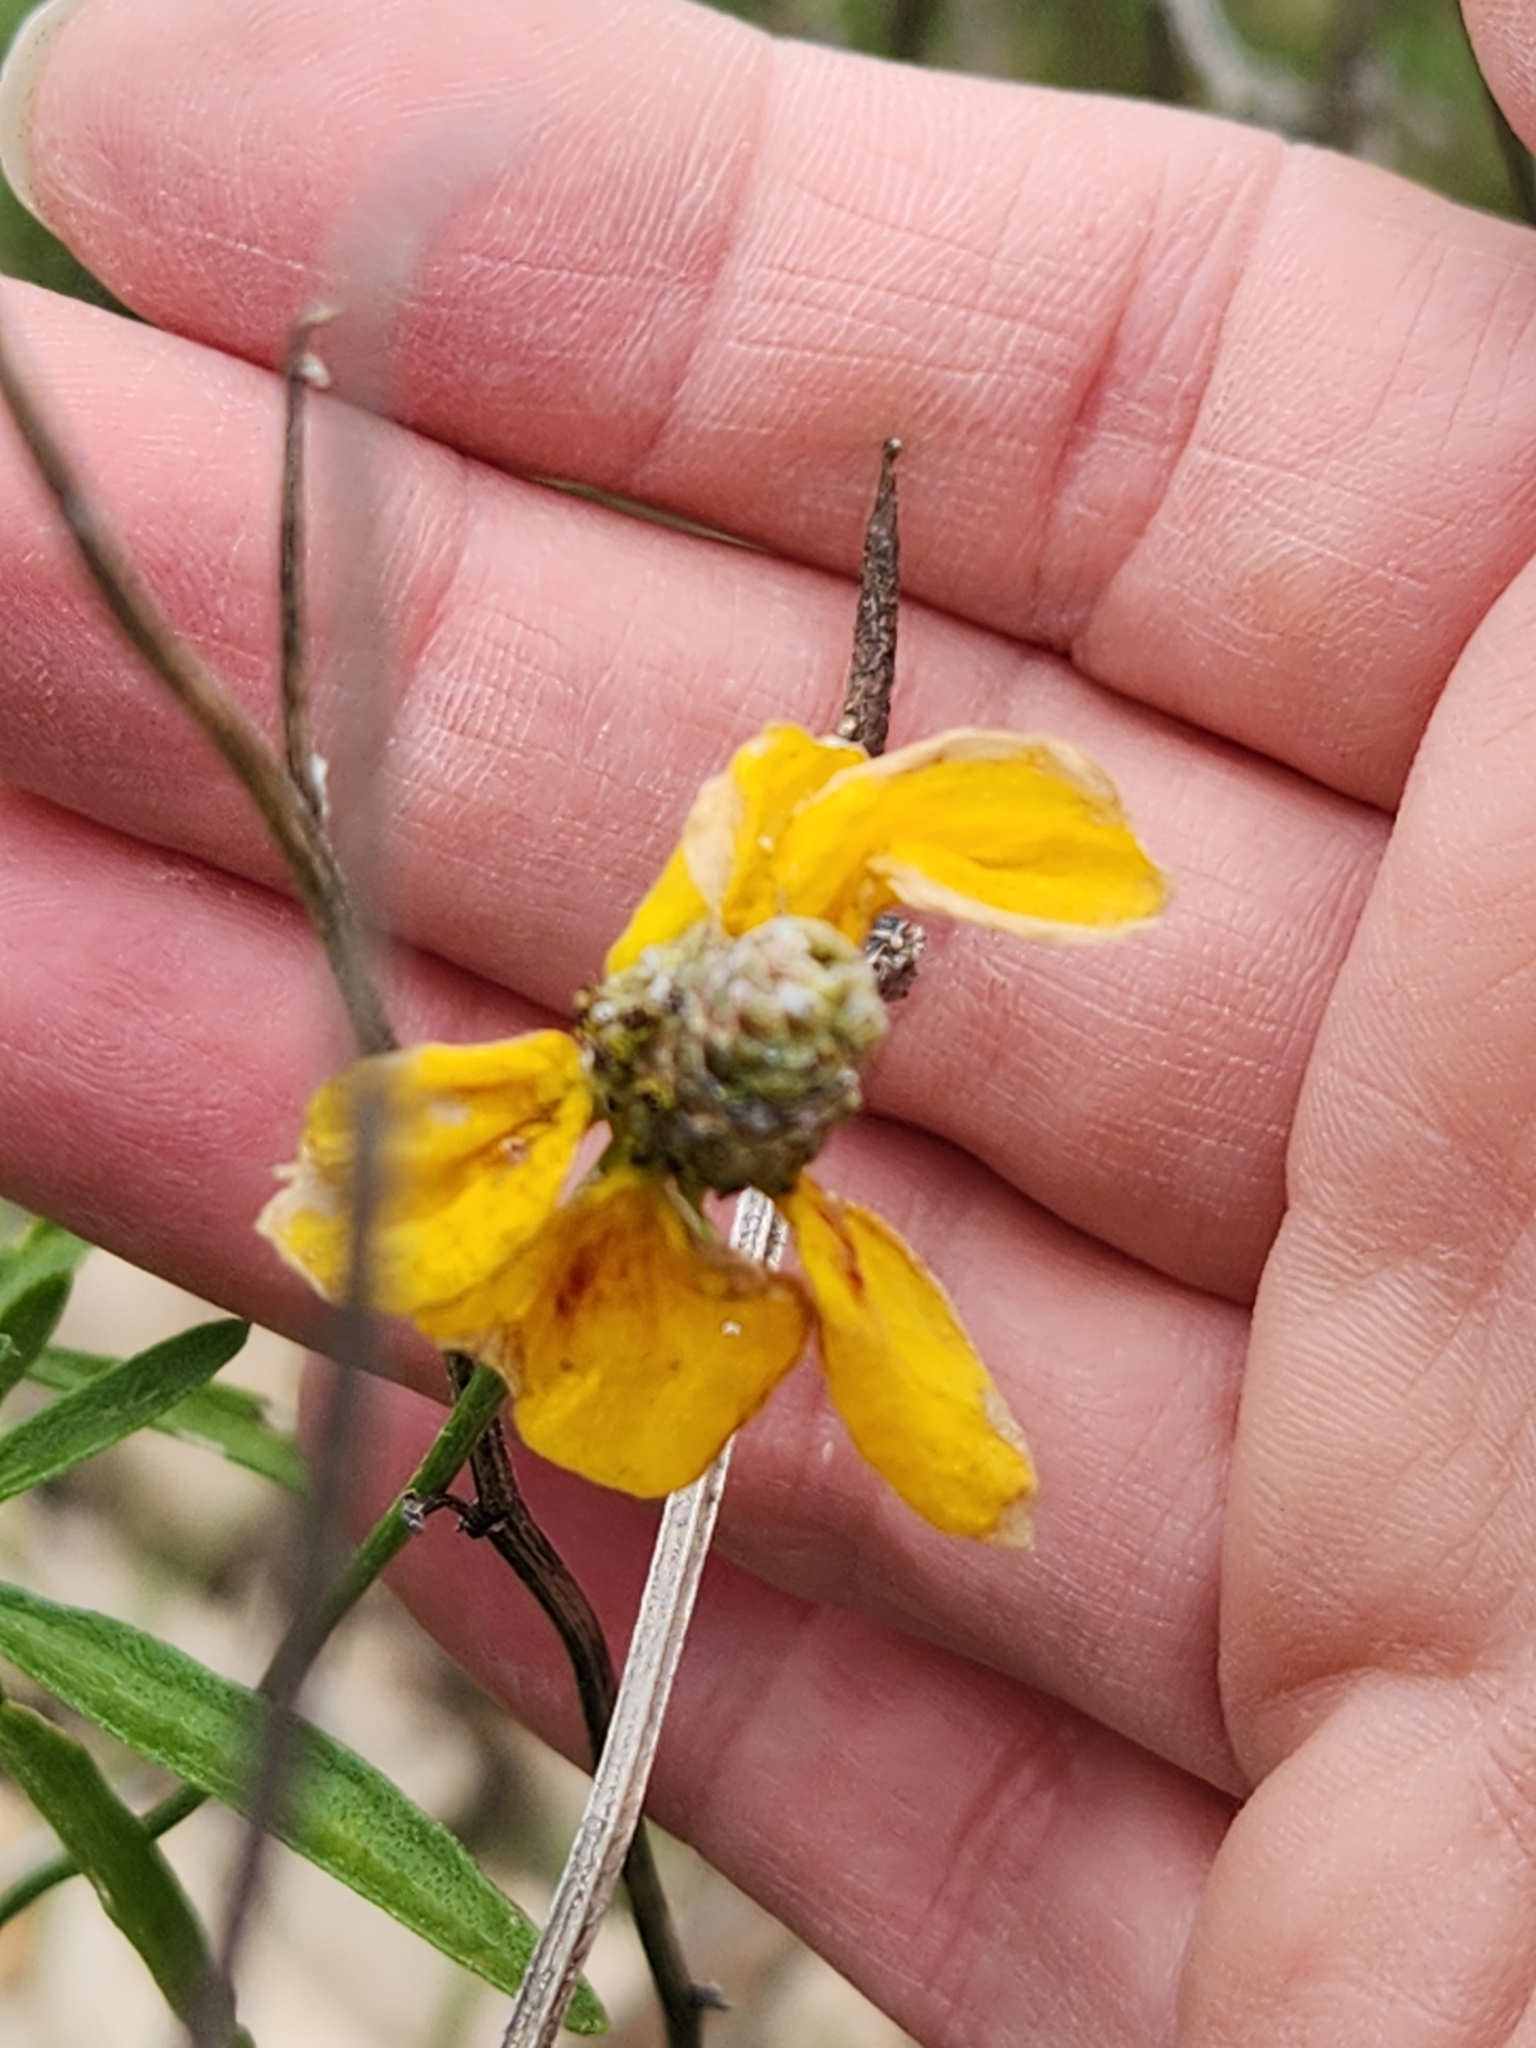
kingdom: Plantae
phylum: Tracheophyta
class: Magnoliopsida
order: Asterales
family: Asteraceae
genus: Ratibida
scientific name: Ratibida columnifera
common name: Prairie coneflower
